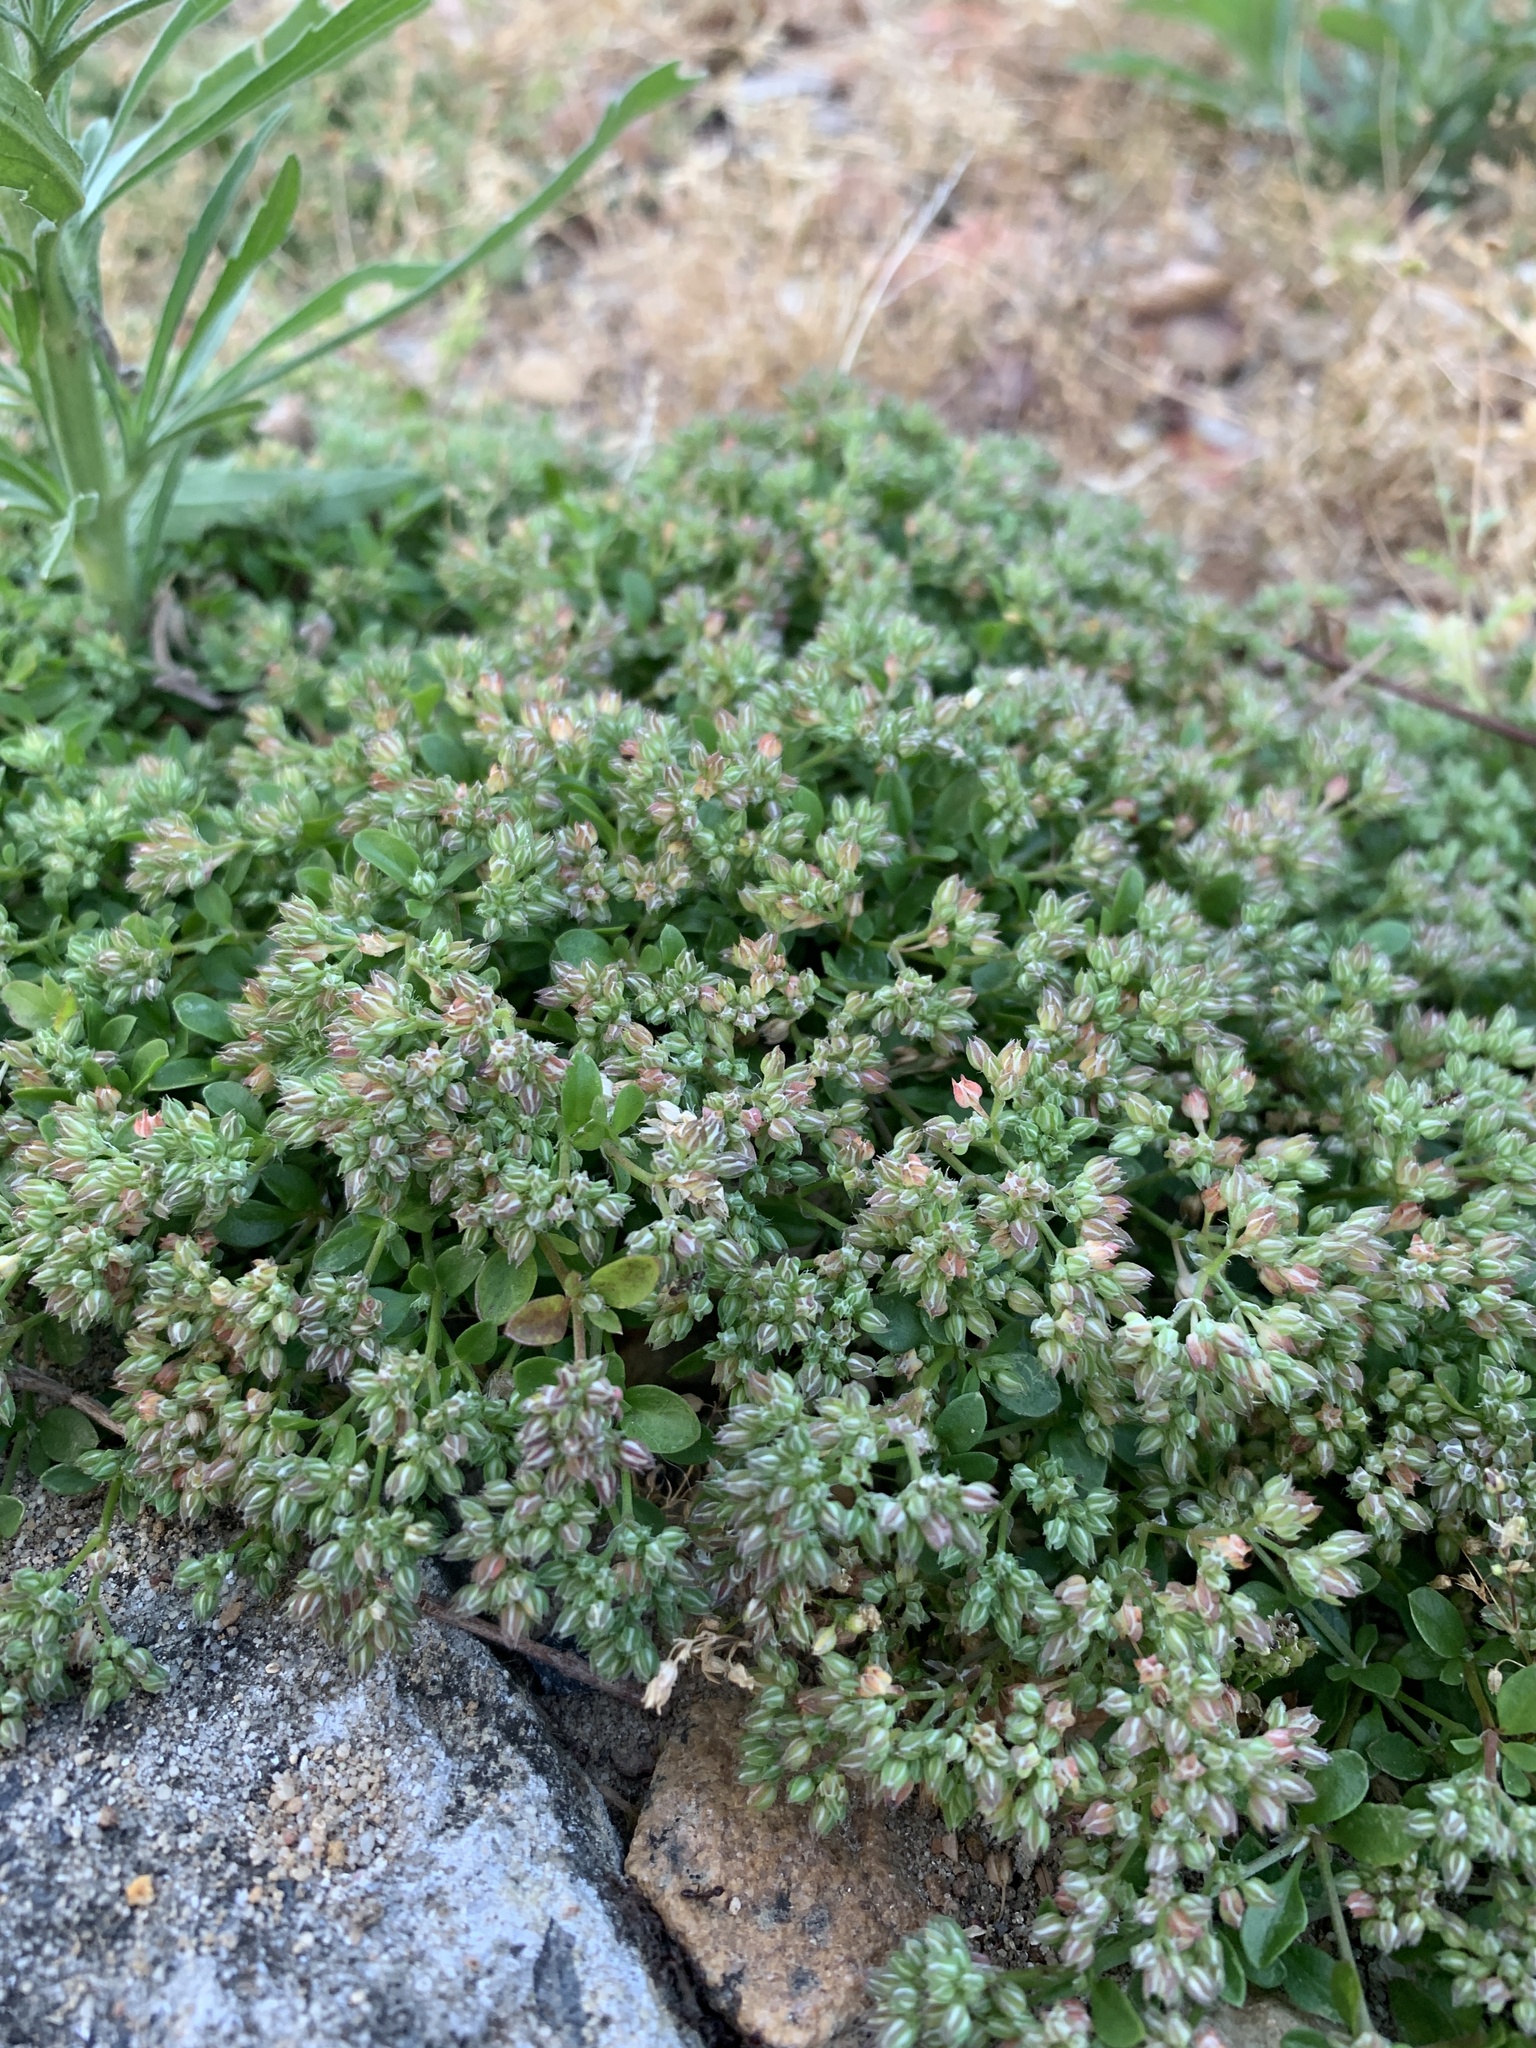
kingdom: Plantae
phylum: Tracheophyta
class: Magnoliopsida
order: Caryophyllales
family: Caryophyllaceae
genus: Polycarpon
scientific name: Polycarpon tetraphyllum
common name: Four-leaved all-seed
